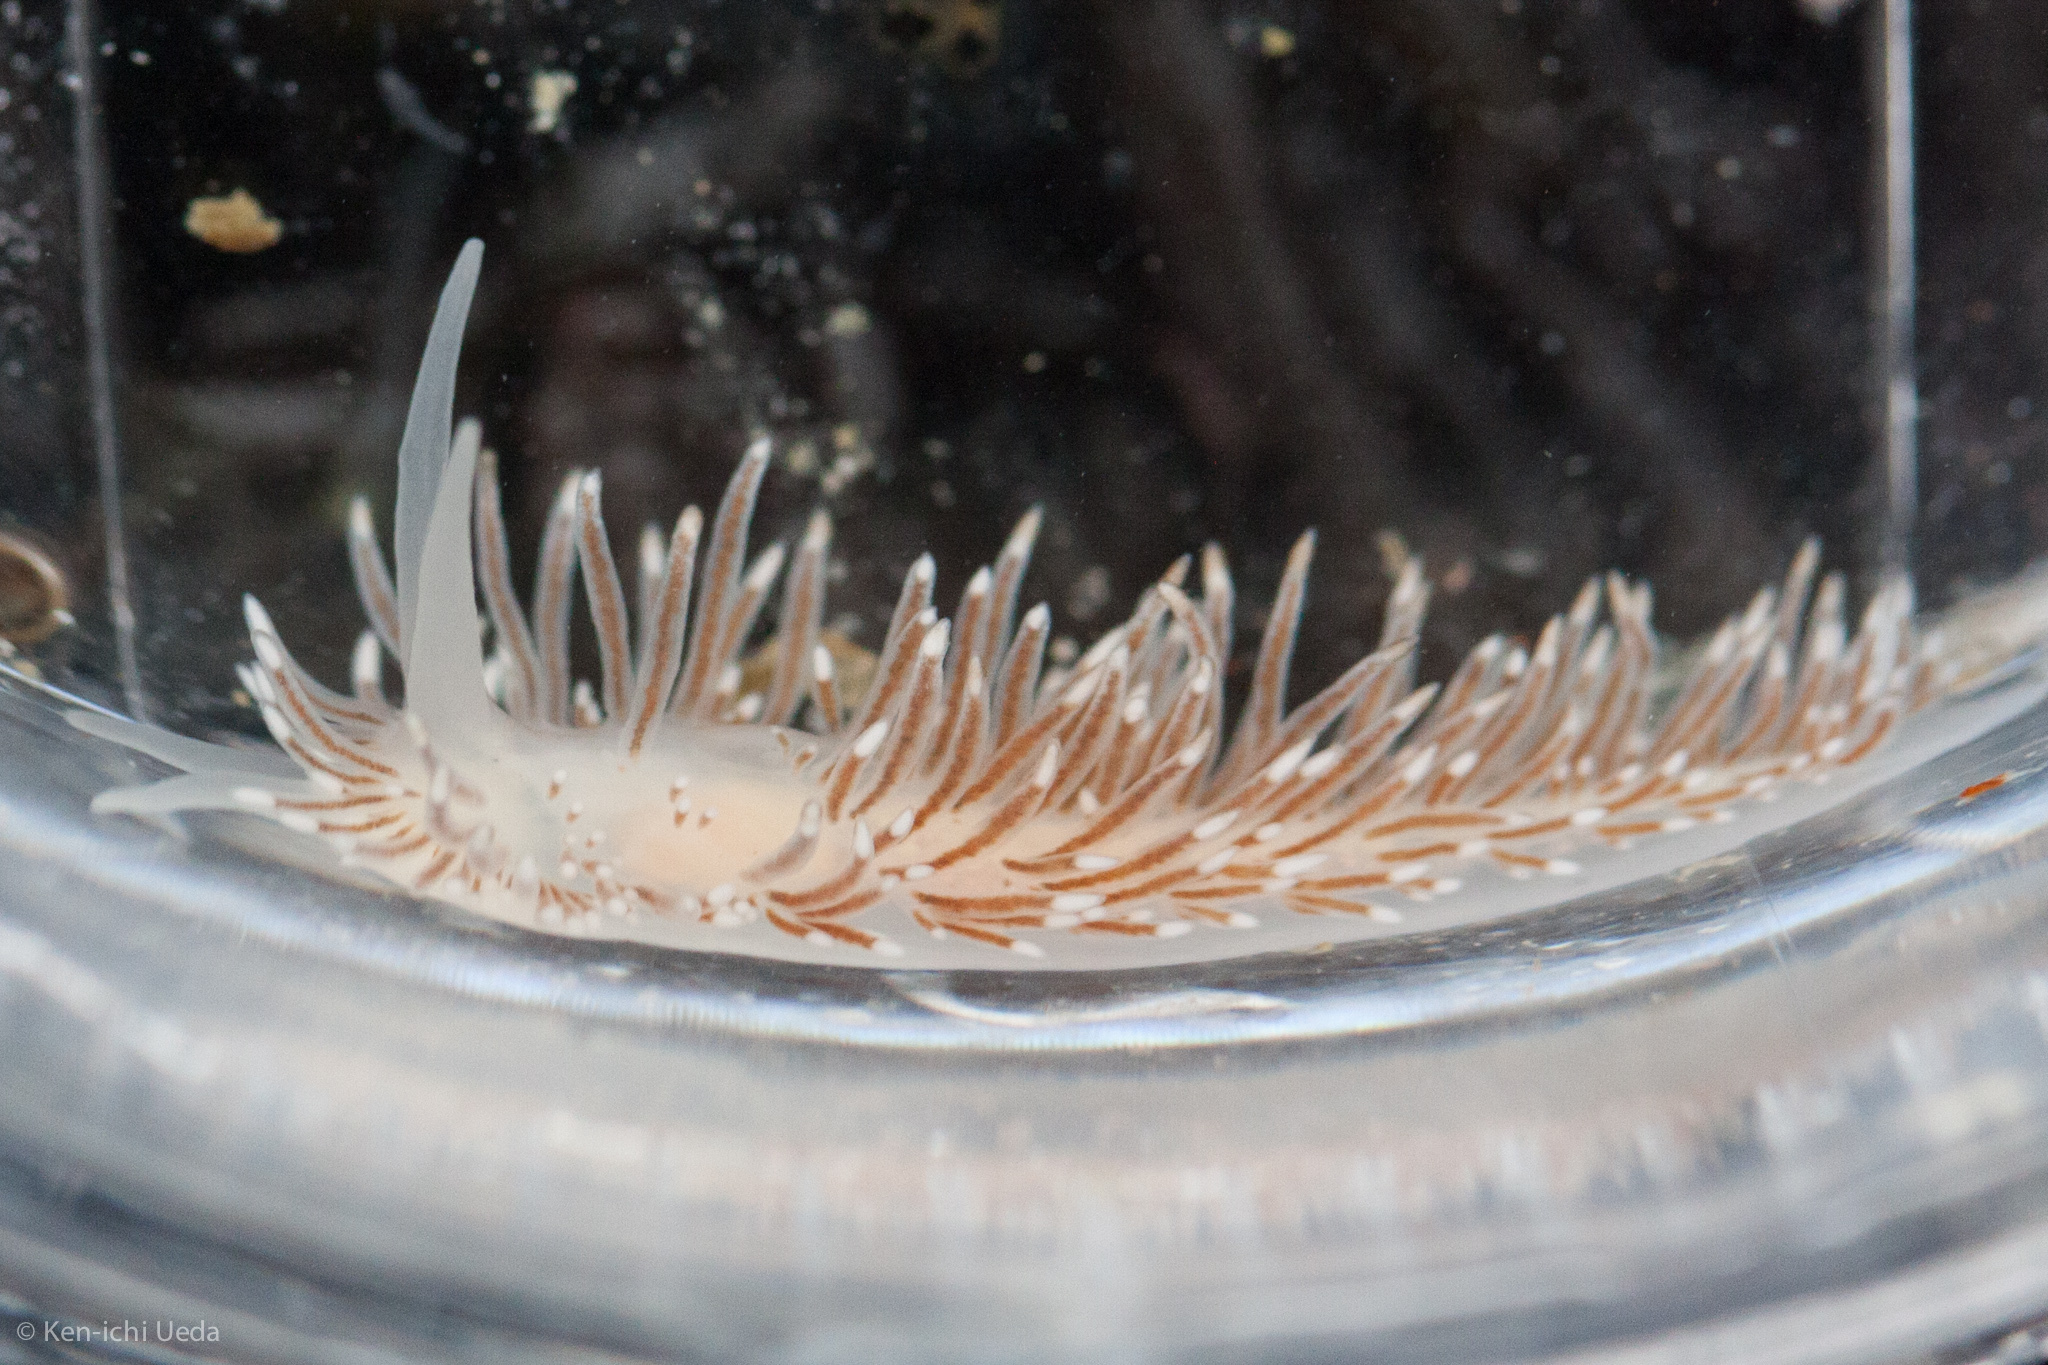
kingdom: Animalia
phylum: Mollusca
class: Gastropoda
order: Nudibranchia
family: Cuthonidae
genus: Cuthona
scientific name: Cuthona divae
